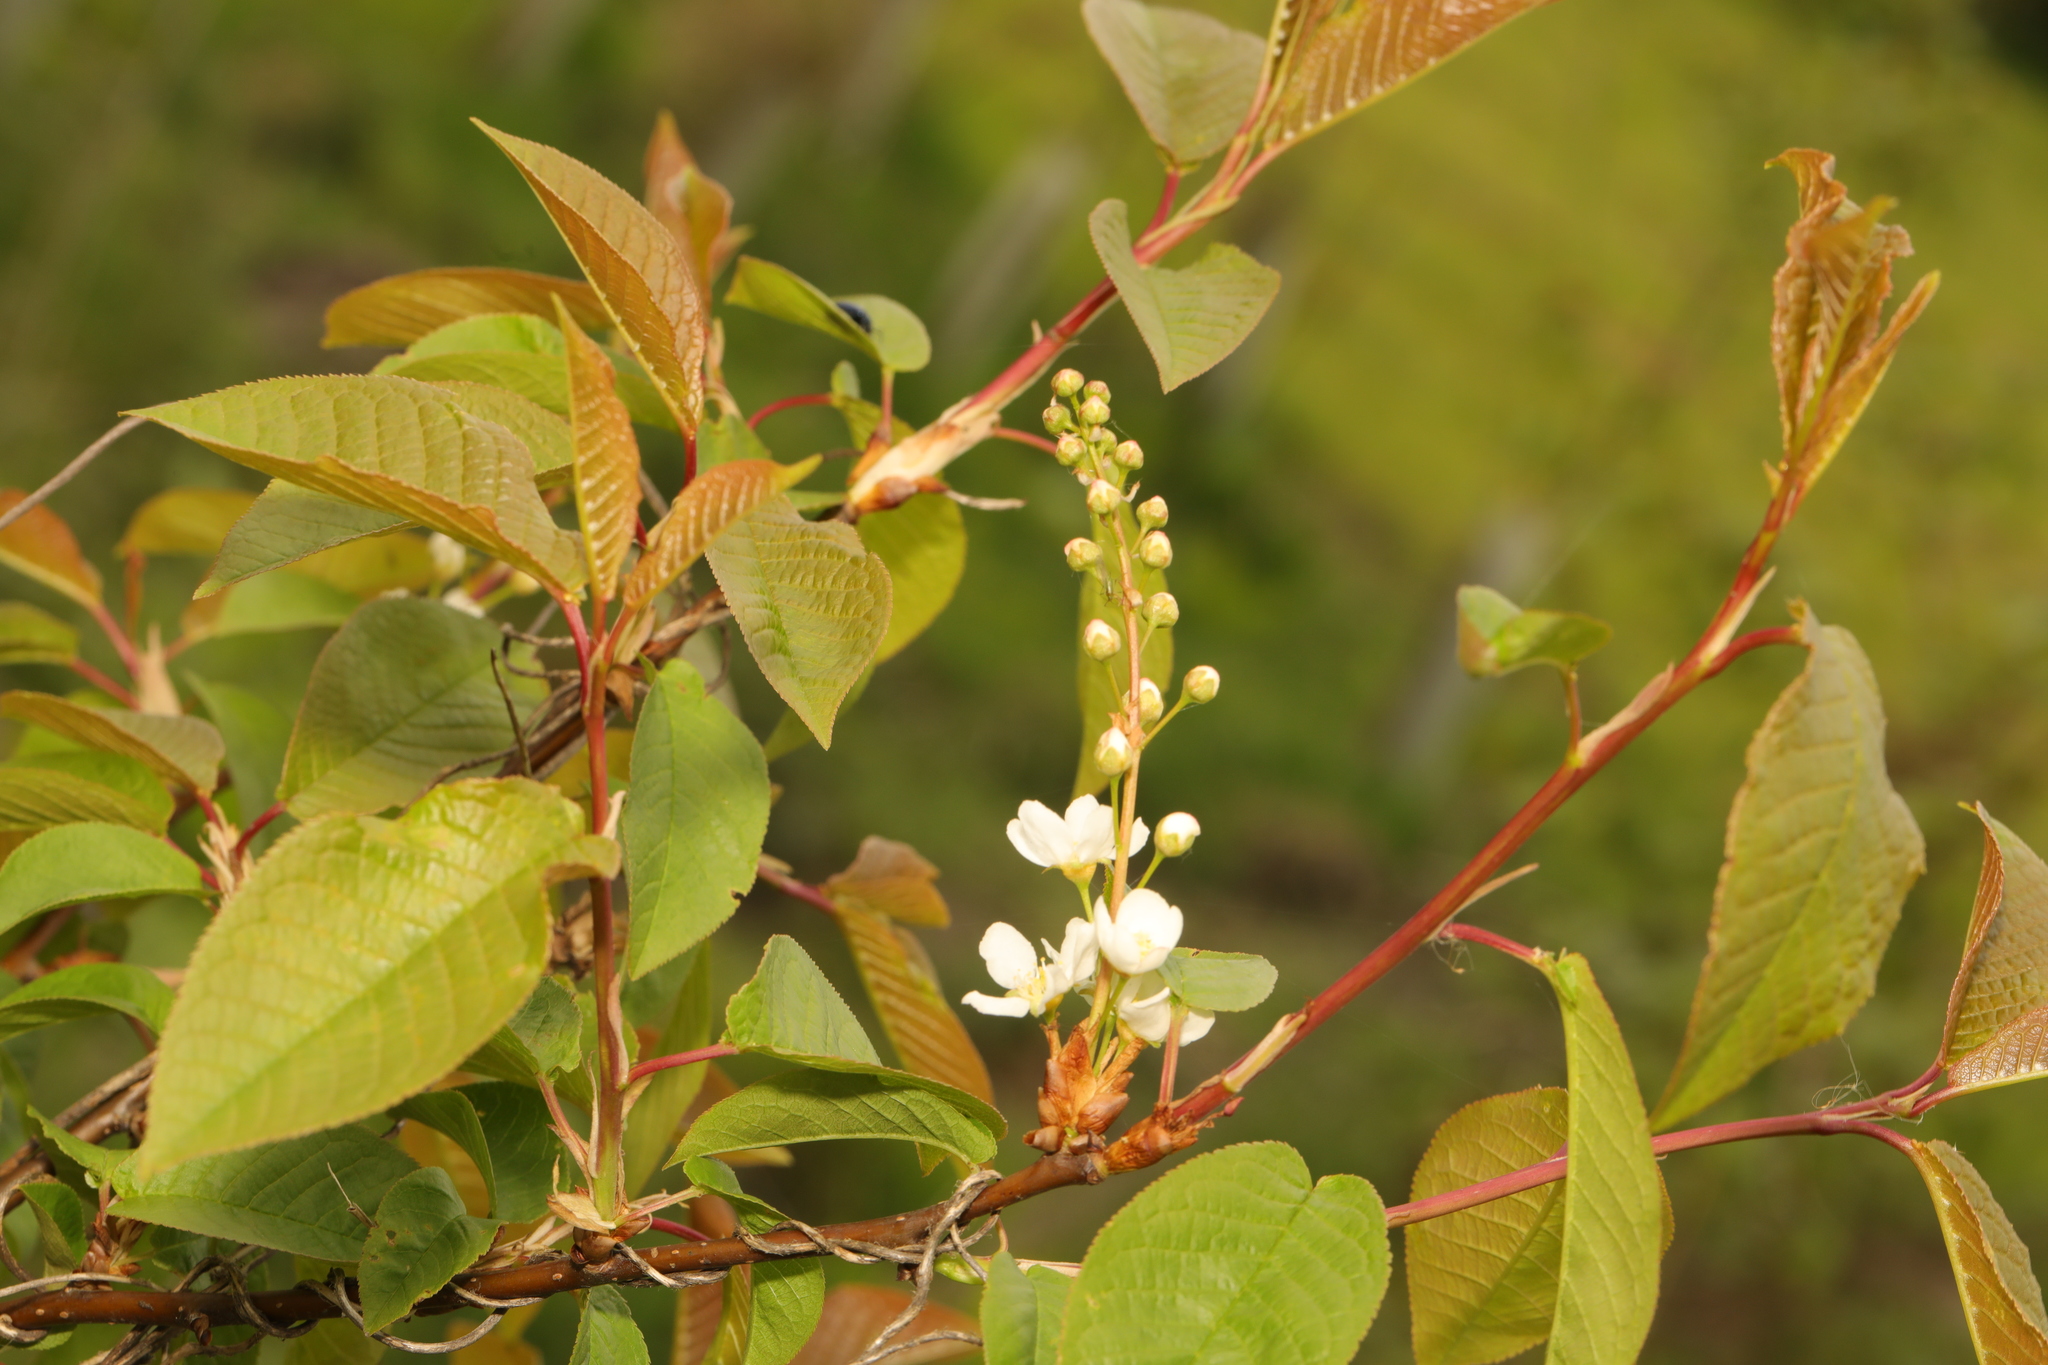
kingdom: Plantae
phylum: Tracheophyta
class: Magnoliopsida
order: Rosales
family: Rosaceae
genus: Prunus
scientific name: Prunus padus
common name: Bird cherry
